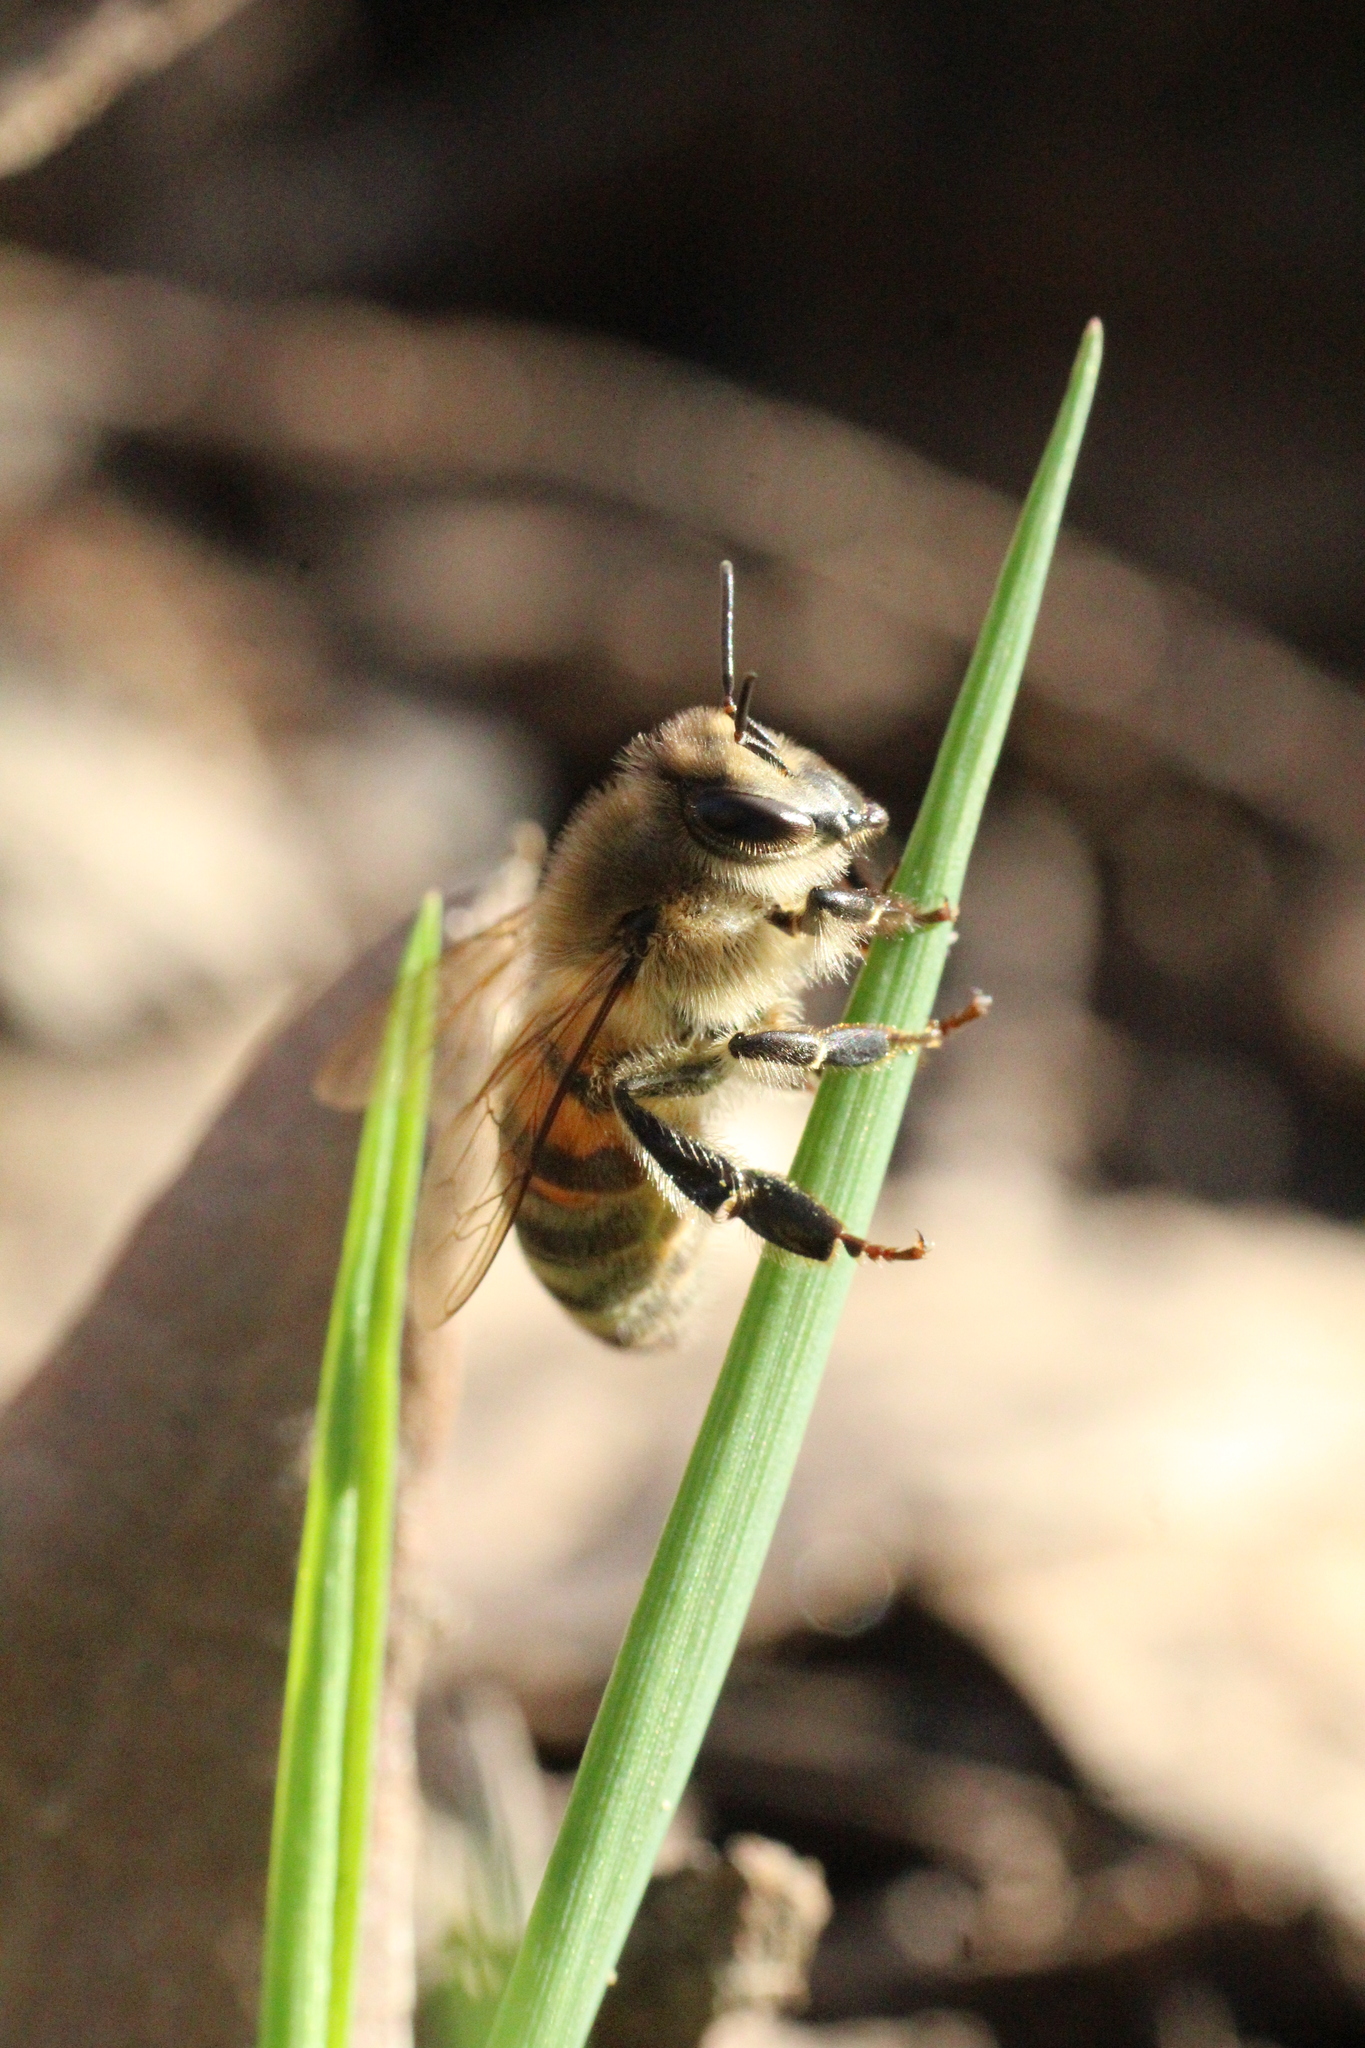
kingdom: Animalia
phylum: Arthropoda
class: Insecta
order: Hymenoptera
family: Apidae
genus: Apis
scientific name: Apis mellifera
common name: Honey bee
